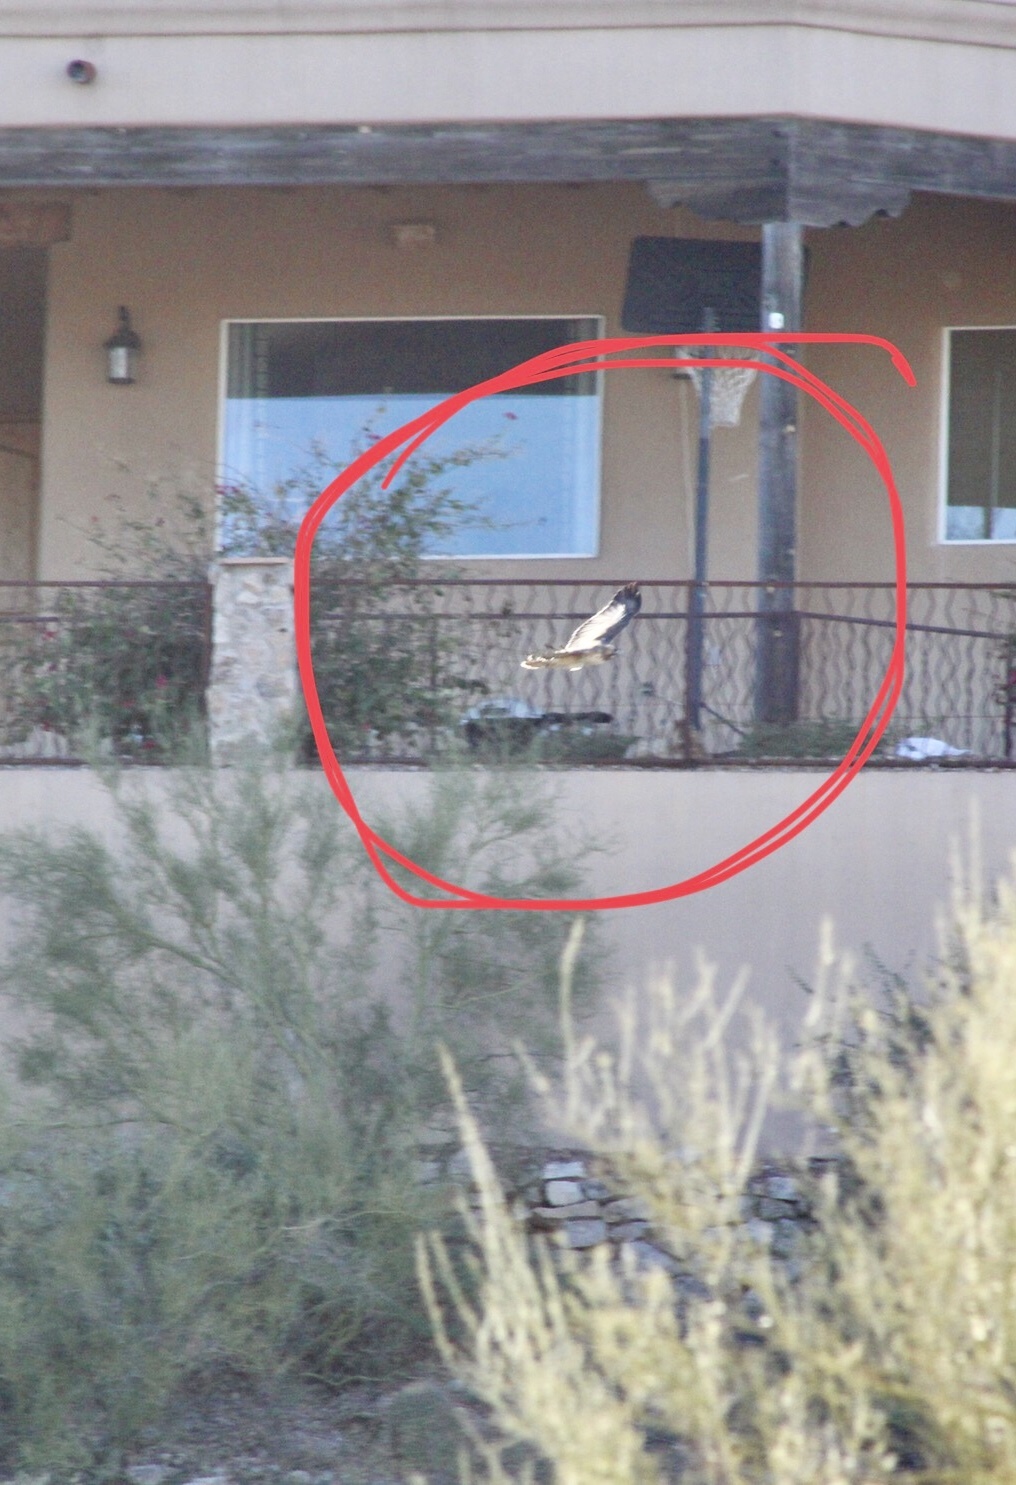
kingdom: Animalia
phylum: Chordata
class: Aves
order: Accipitriformes
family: Accipitridae
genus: Buteo
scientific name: Buteo jamaicensis
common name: Red-tailed hawk
